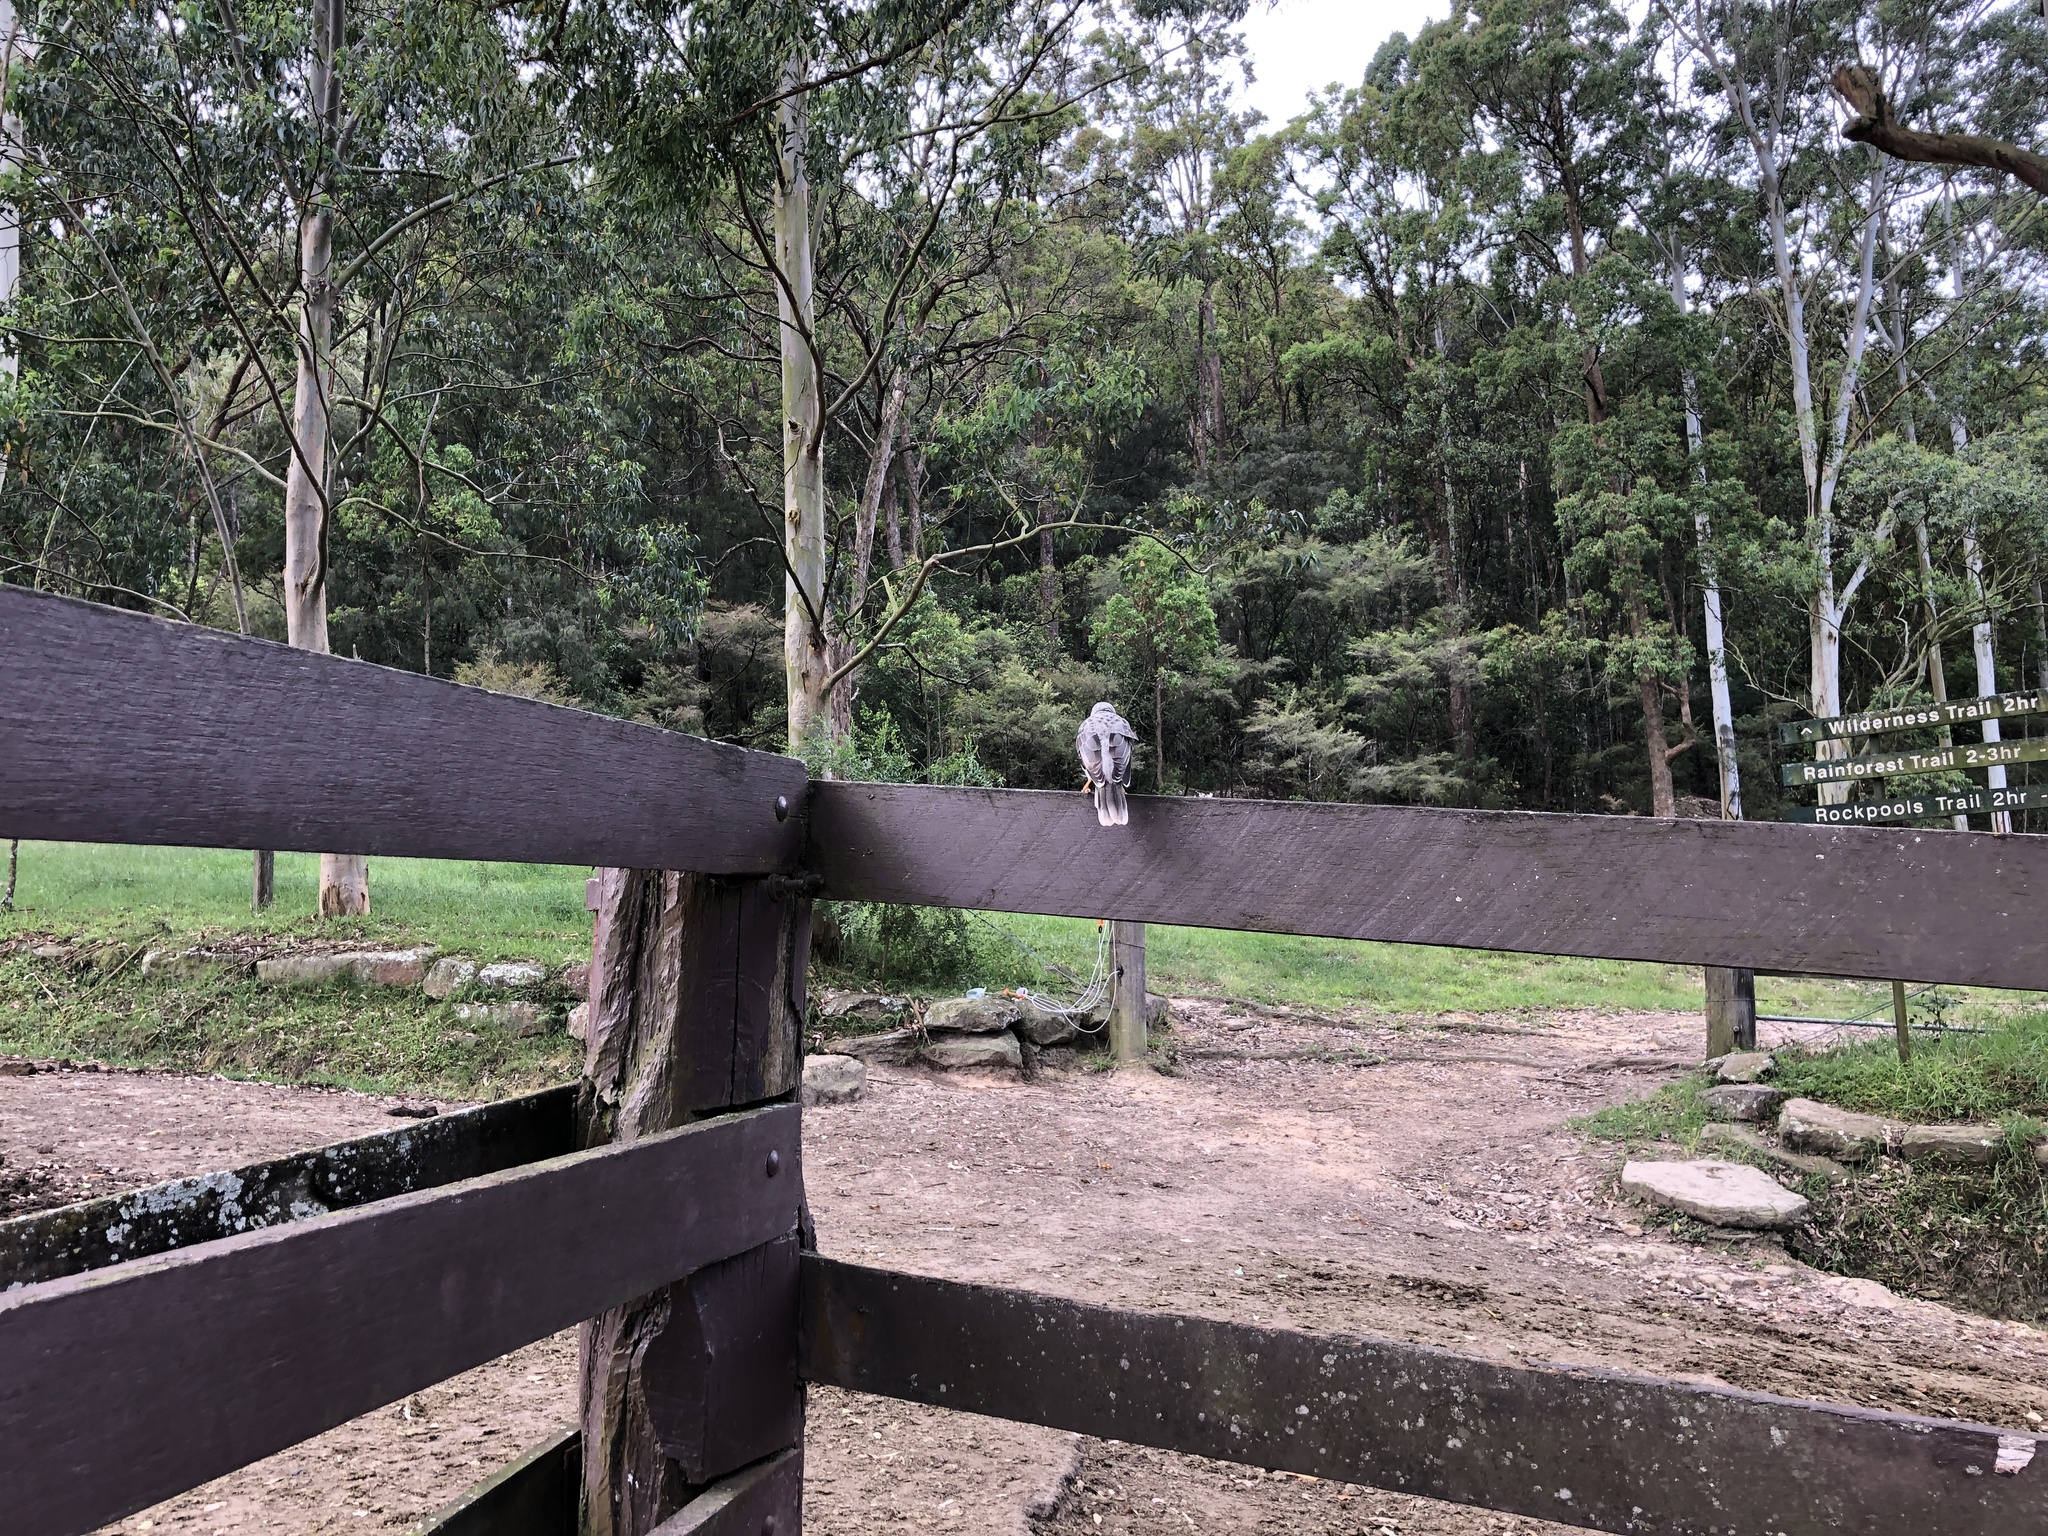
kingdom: Animalia
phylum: Chordata
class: Aves
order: Passeriformes
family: Meliphagidae
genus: Manorina
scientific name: Manorina melanocephala
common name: Noisy miner
